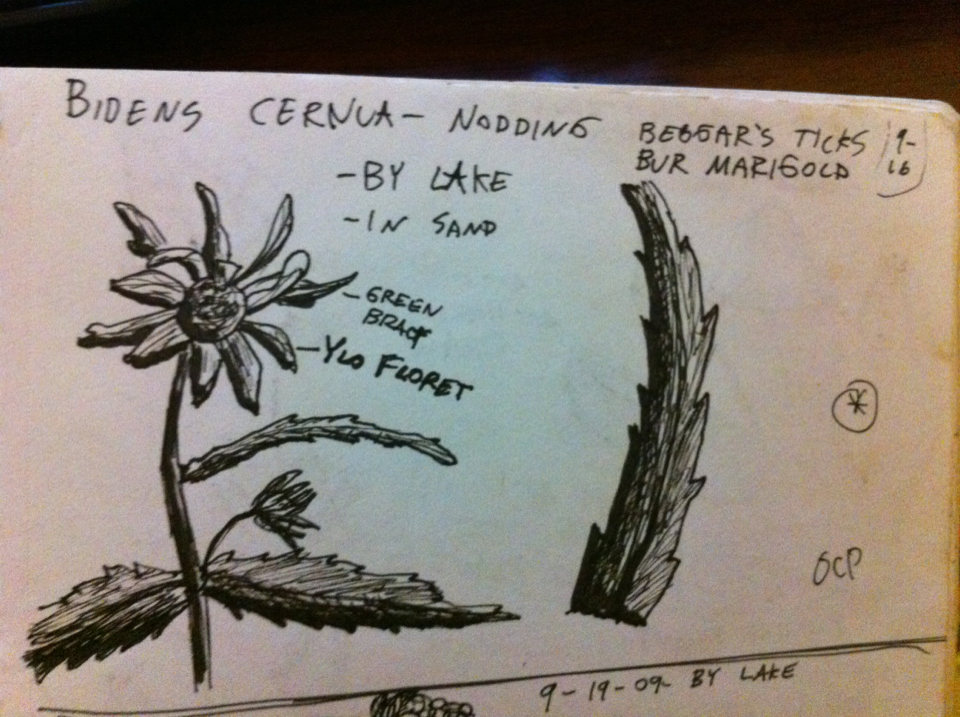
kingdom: Plantae
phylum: Tracheophyta
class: Magnoliopsida
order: Asterales
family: Asteraceae
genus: Bidens
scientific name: Bidens cernua
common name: Nodding bur-marigold
